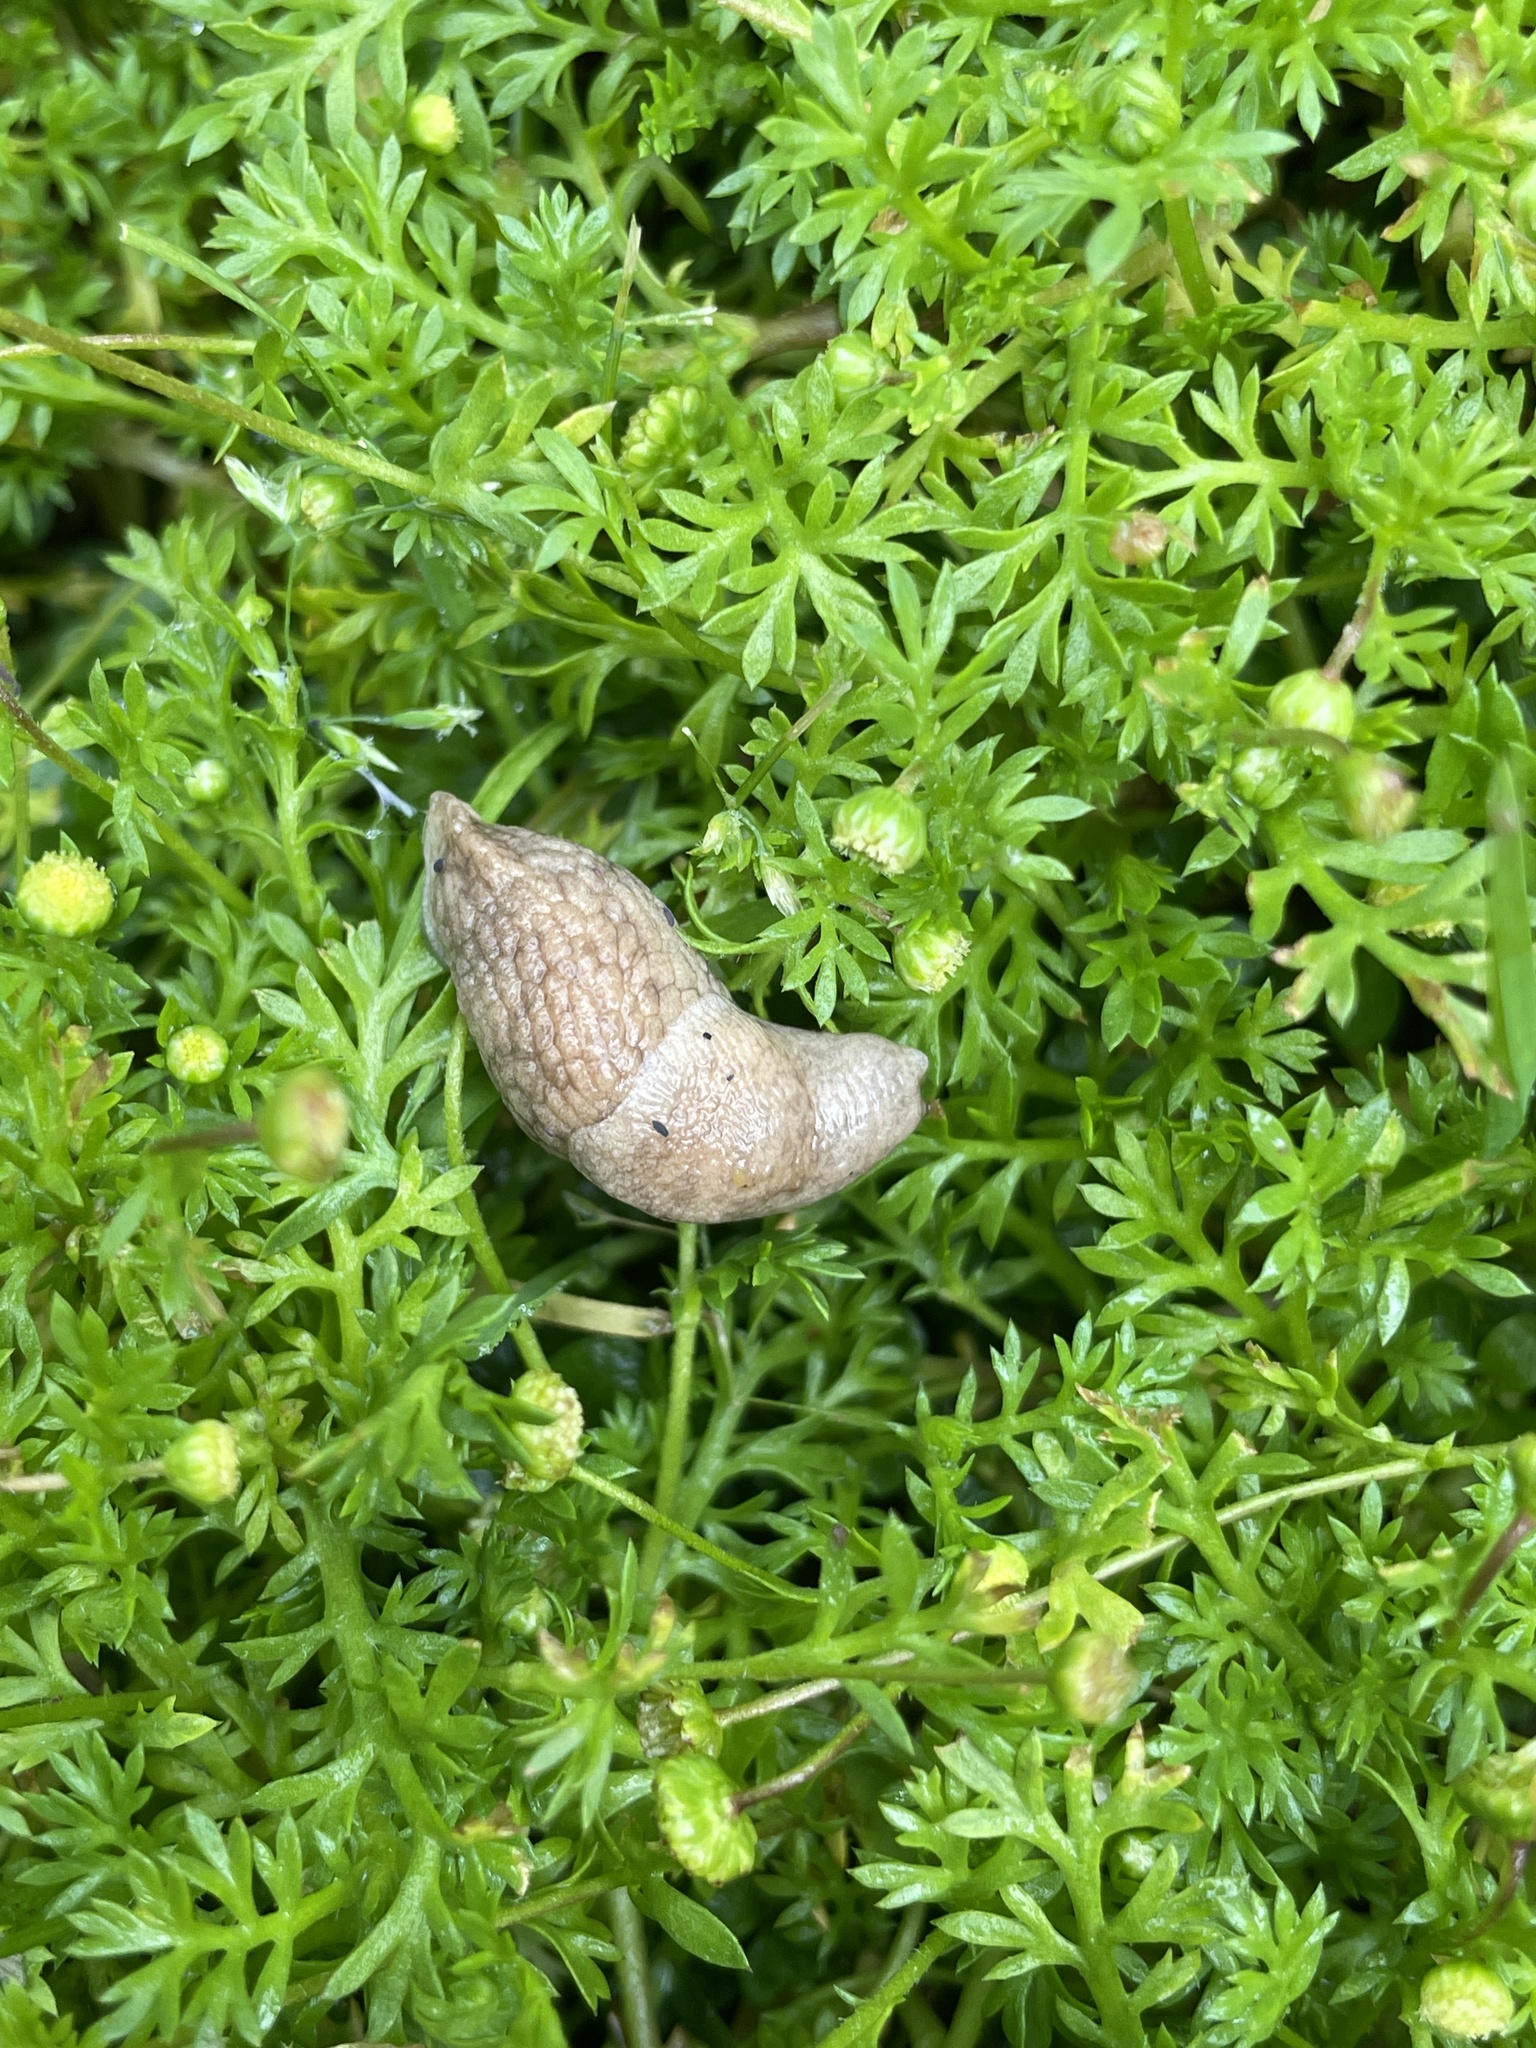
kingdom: Animalia
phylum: Mollusca
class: Gastropoda
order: Stylommatophora
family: Agriolimacidae
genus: Deroceras
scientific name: Deroceras reticulatum
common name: Gray field slug
